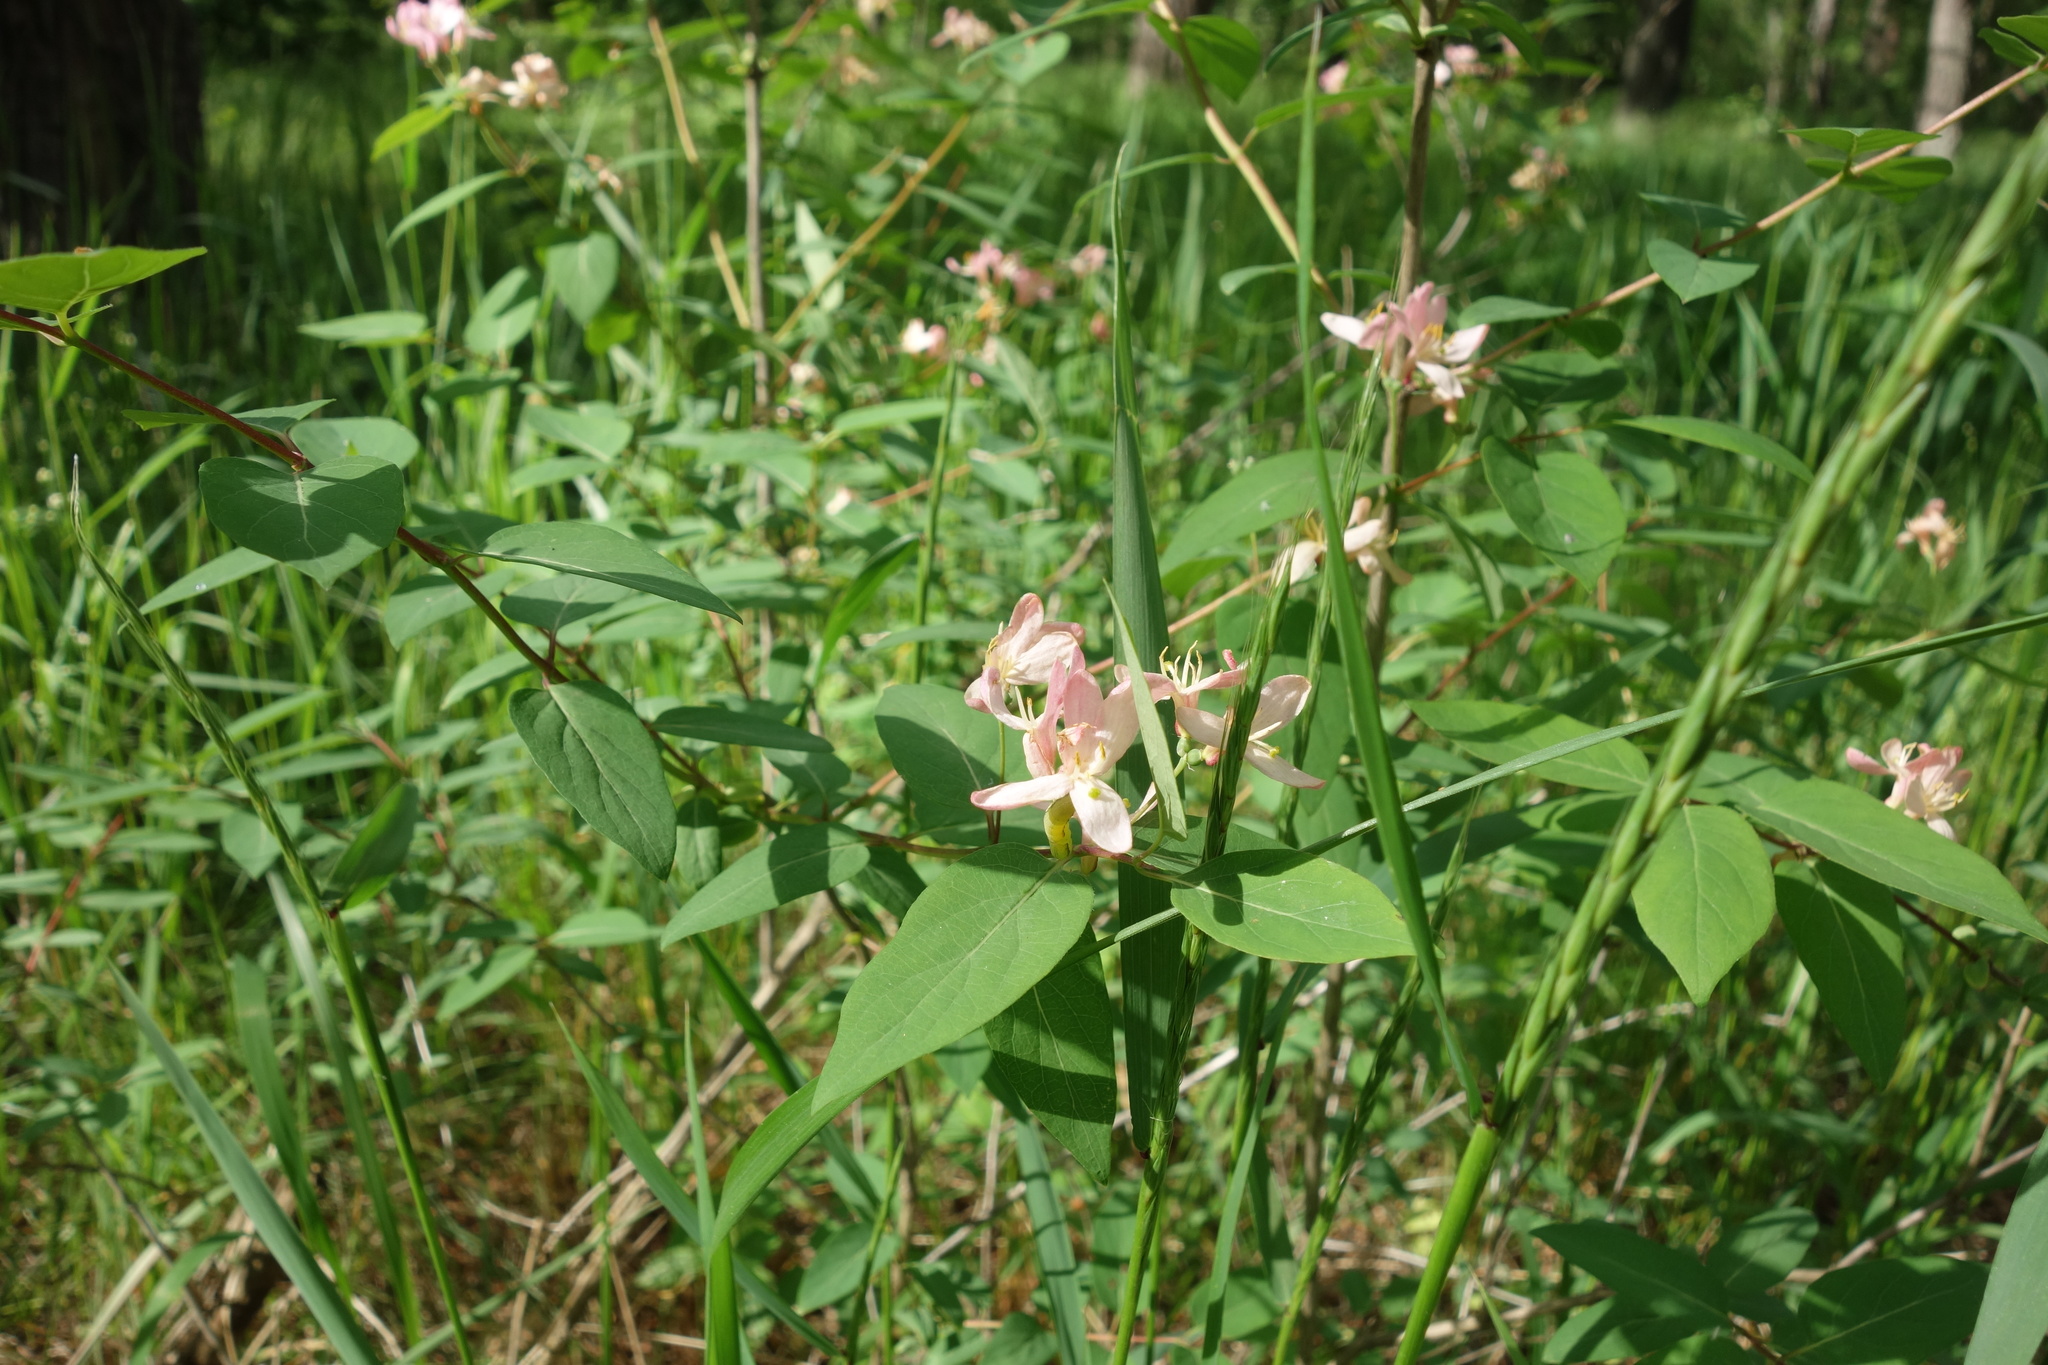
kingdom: Plantae
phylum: Tracheophyta
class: Magnoliopsida
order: Dipsacales
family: Caprifoliaceae
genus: Lonicera
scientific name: Lonicera tatarica
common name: Tatarian honeysuckle
